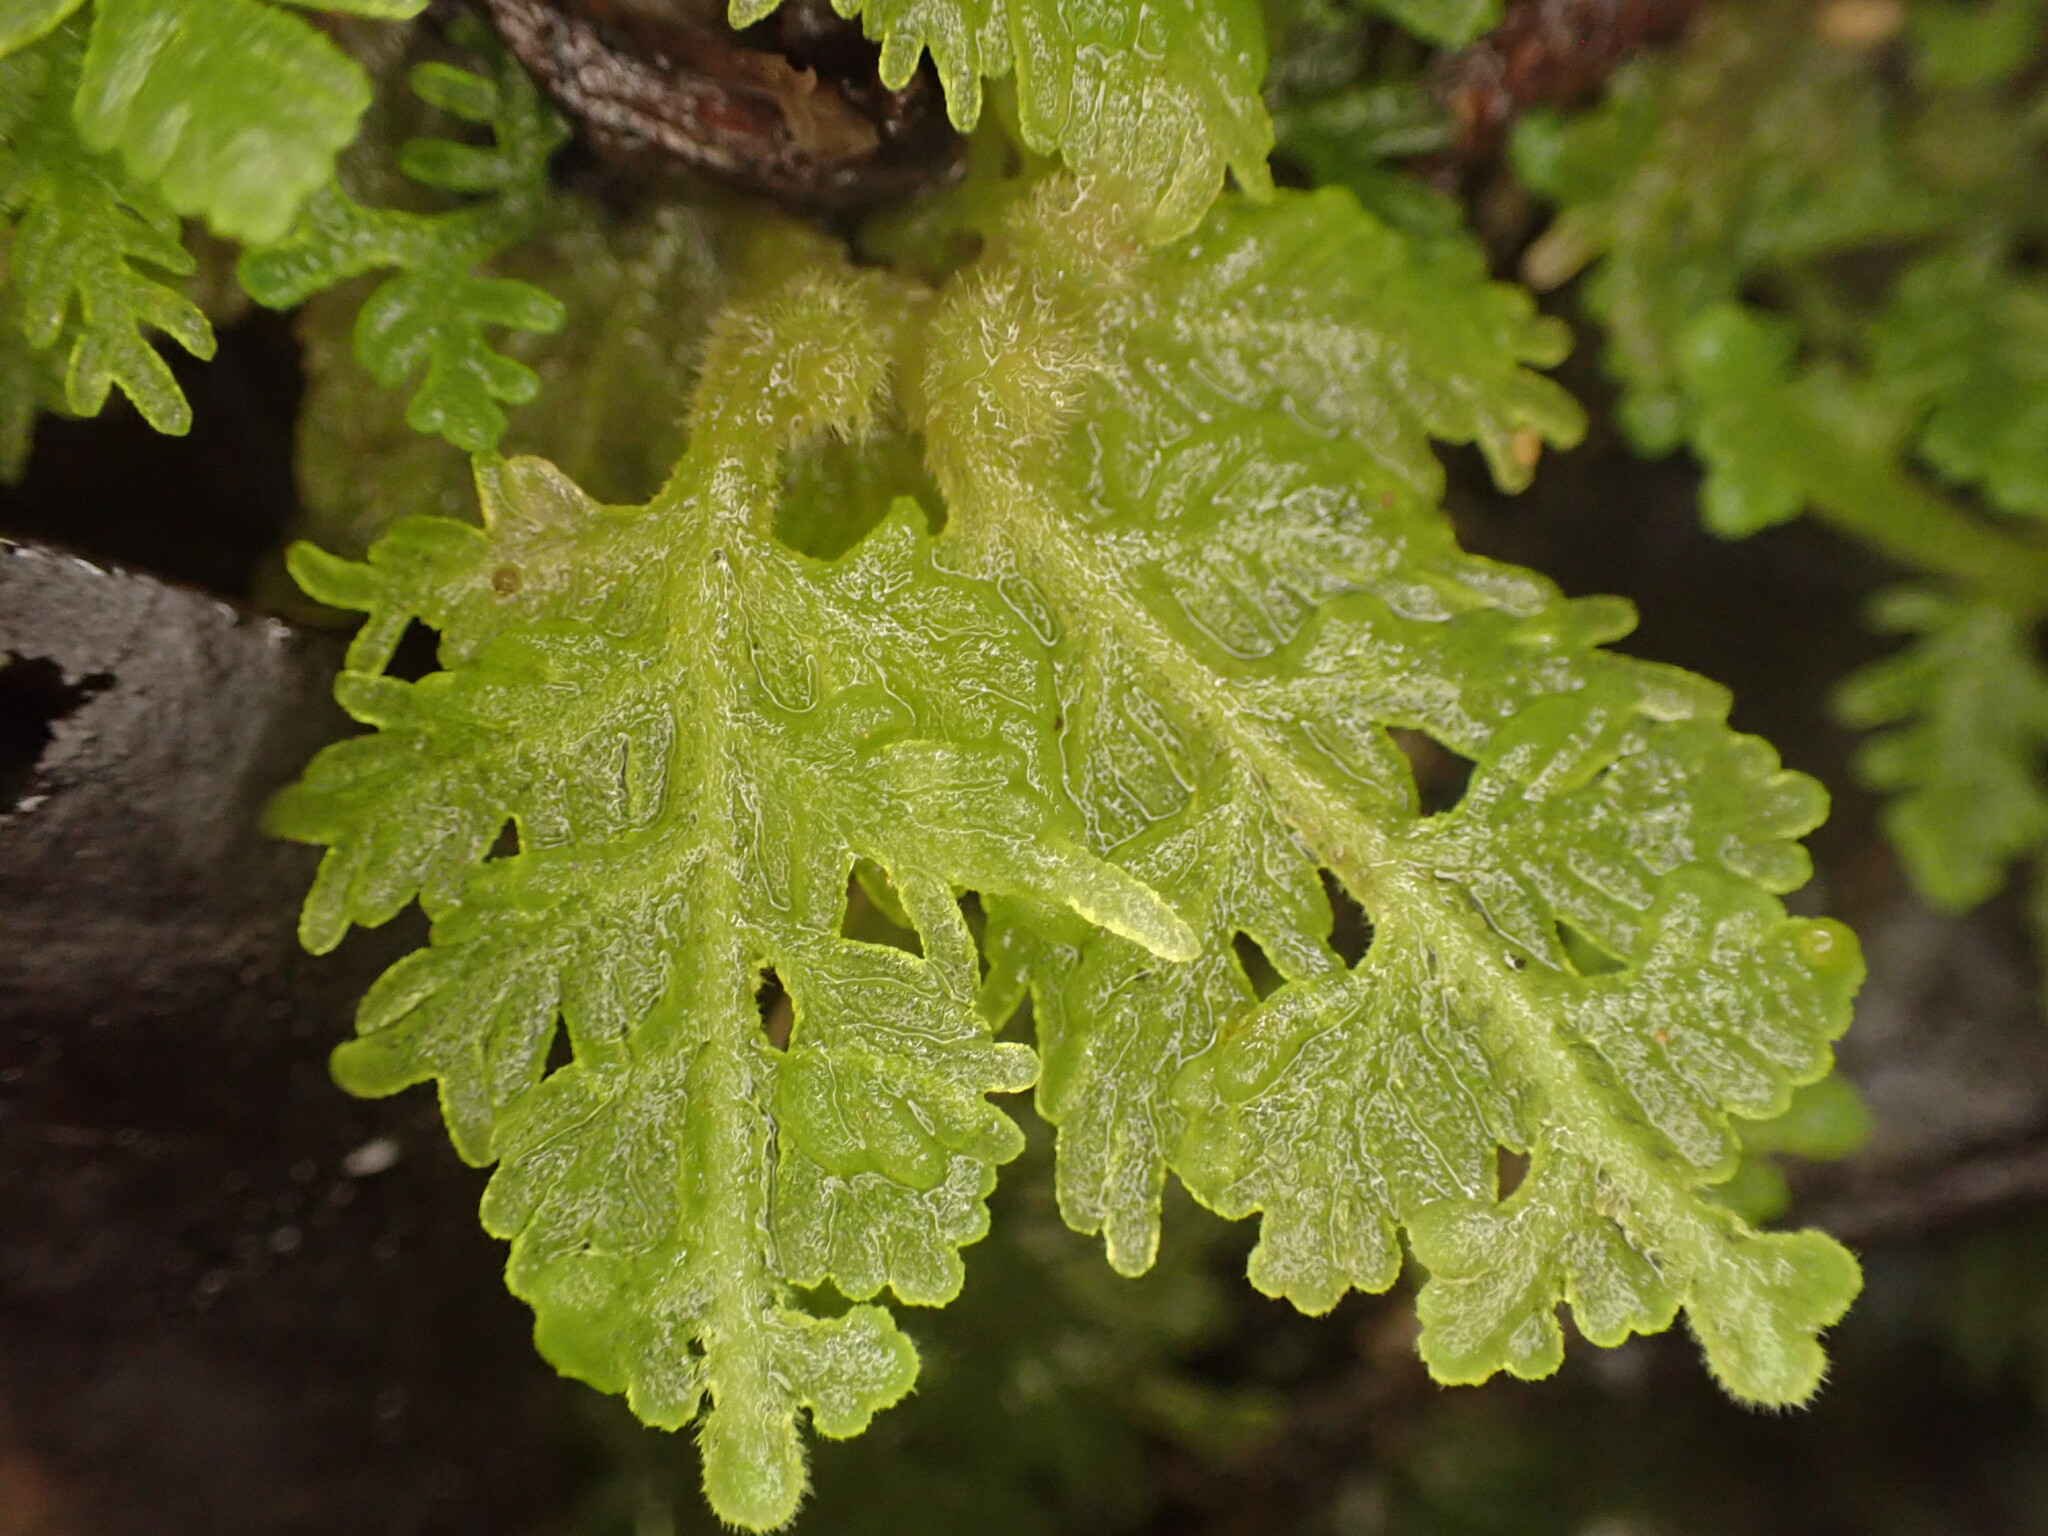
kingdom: Plantae
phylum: Marchantiophyta
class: Jungermanniopsida
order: Jungermanniales
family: Trichocoleaceae
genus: Trichocolea
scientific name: Trichocolea mollissima
